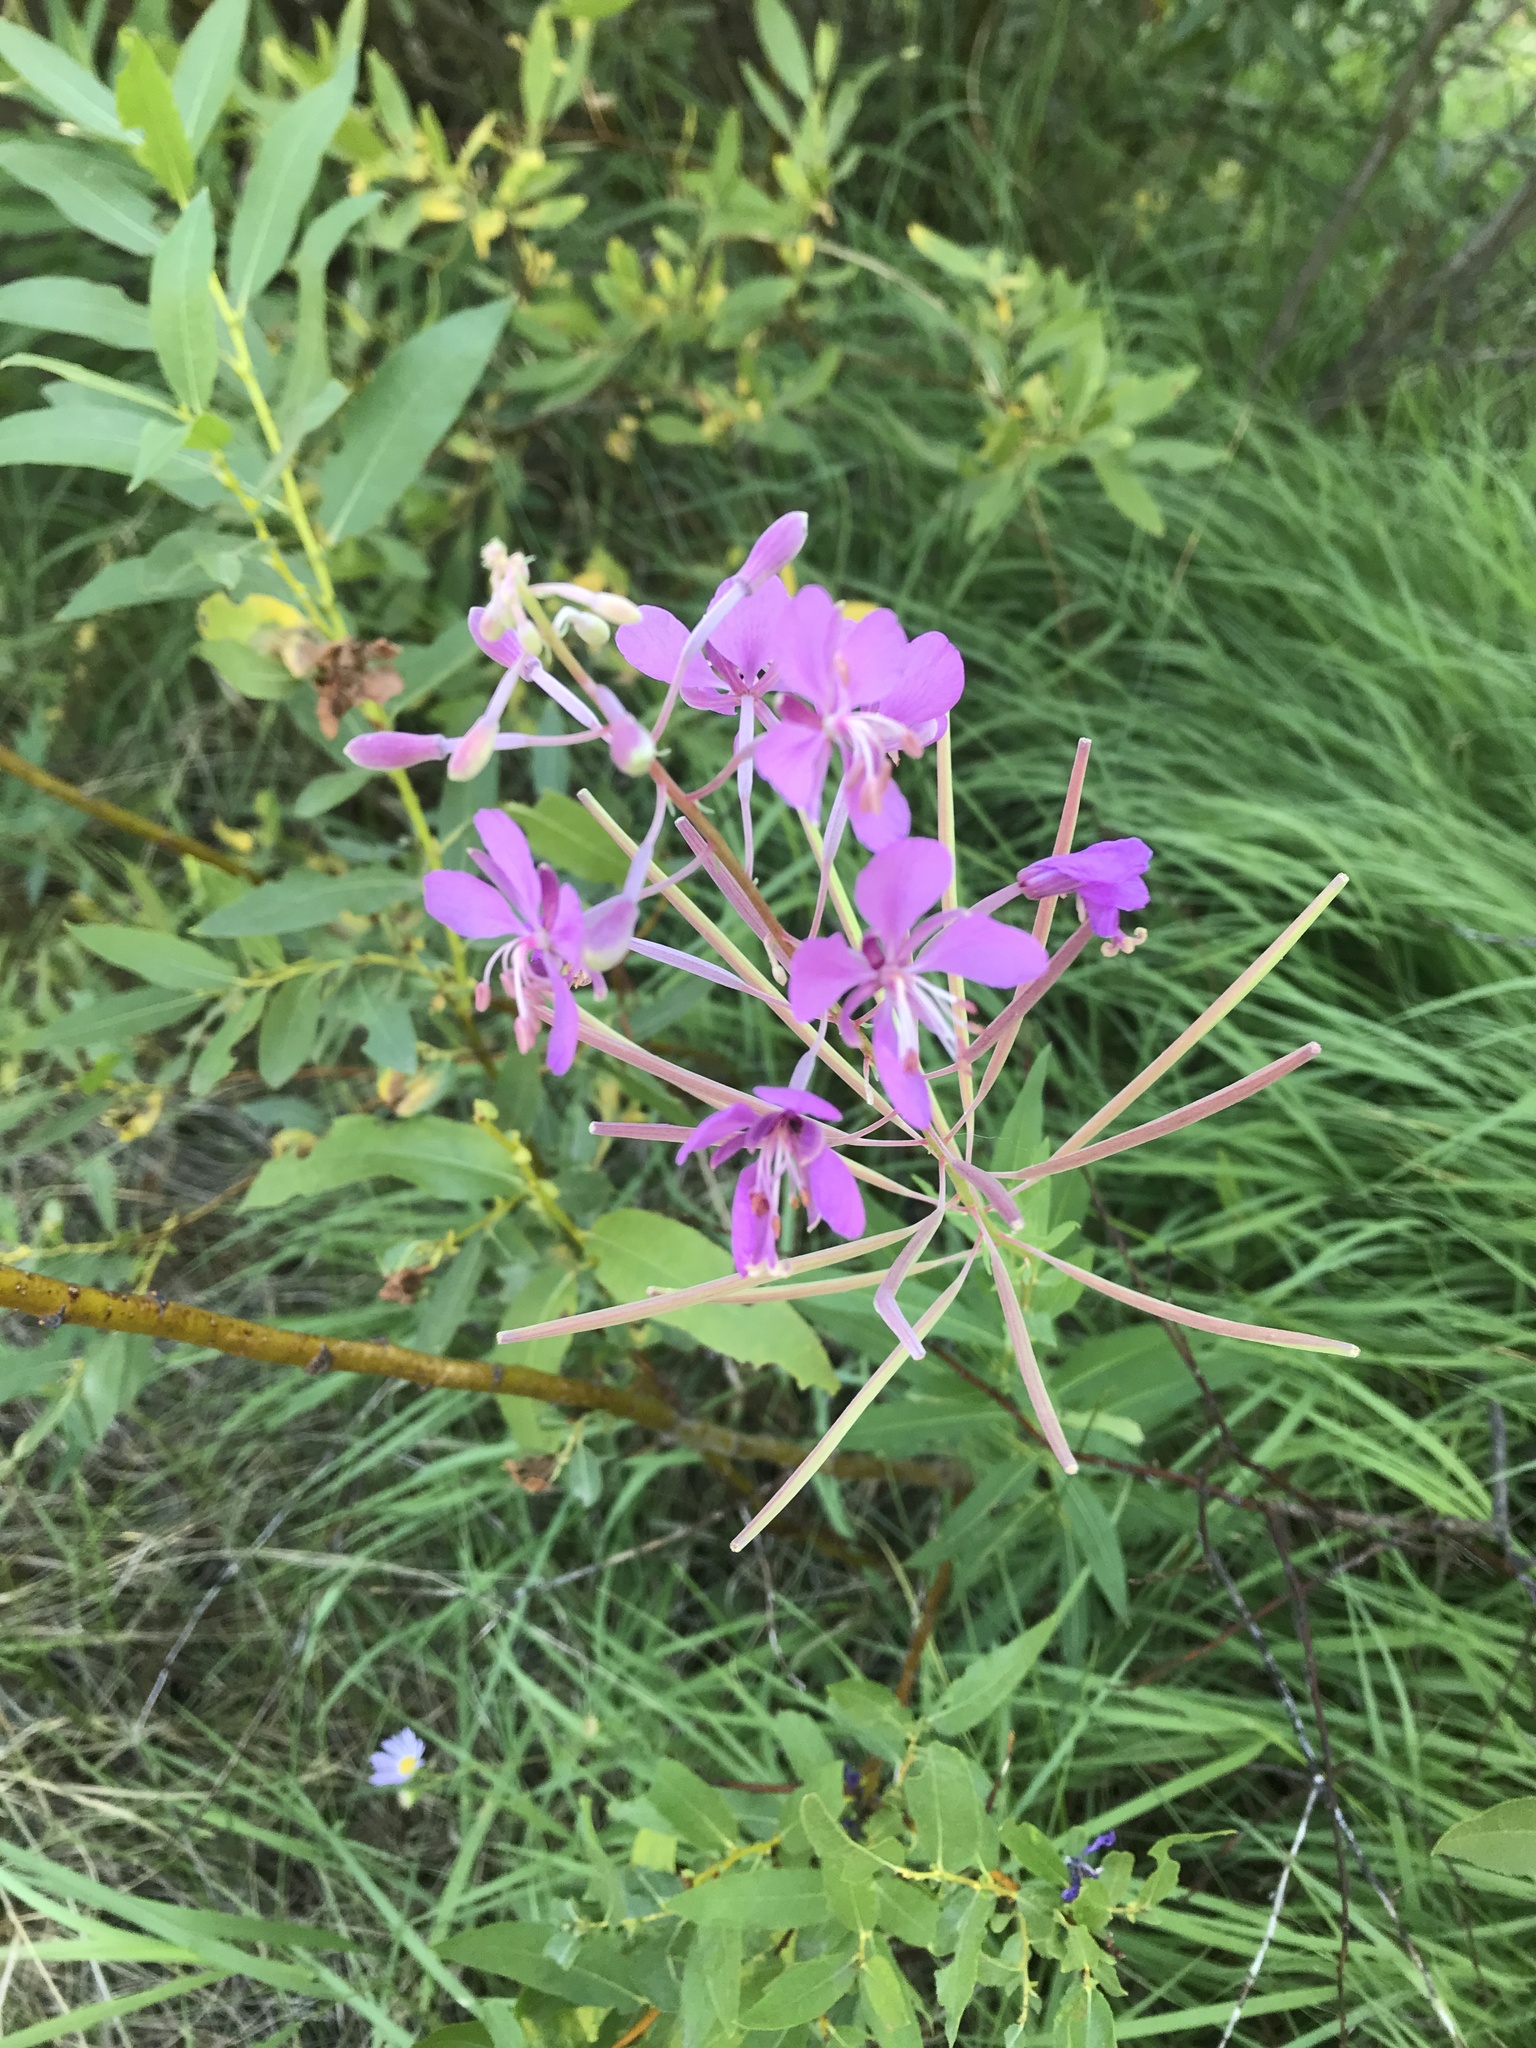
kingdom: Plantae
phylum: Tracheophyta
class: Magnoliopsida
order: Myrtales
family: Onagraceae
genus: Chamaenerion
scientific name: Chamaenerion angustifolium
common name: Fireweed
